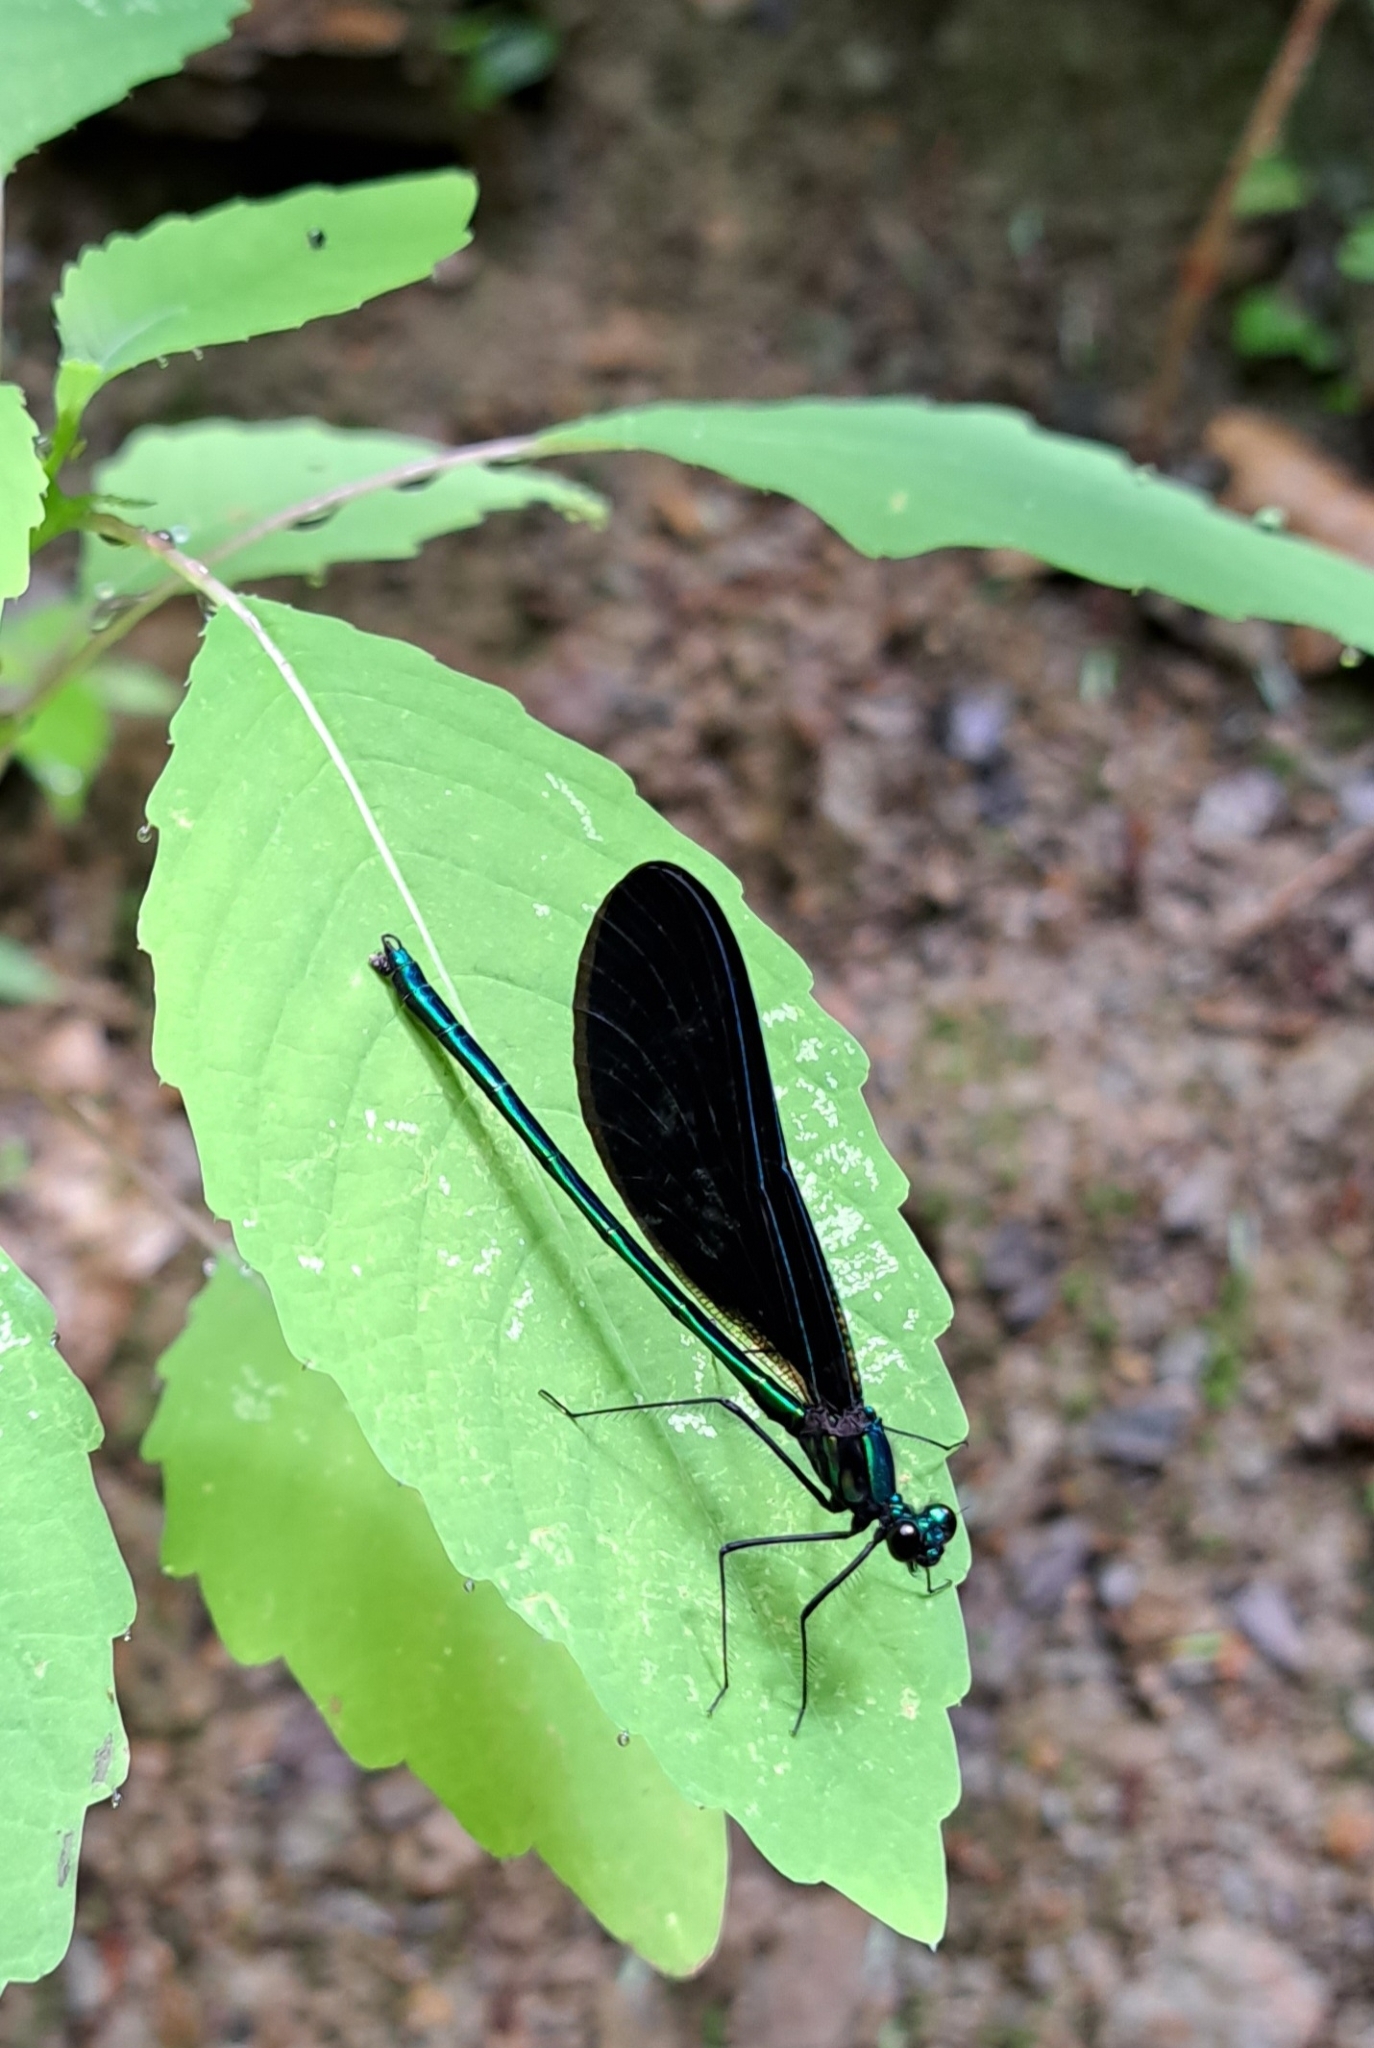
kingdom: Animalia
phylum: Arthropoda
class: Insecta
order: Odonata
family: Calopterygidae
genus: Calopteryx
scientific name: Calopteryx maculata
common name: Ebony jewelwing
